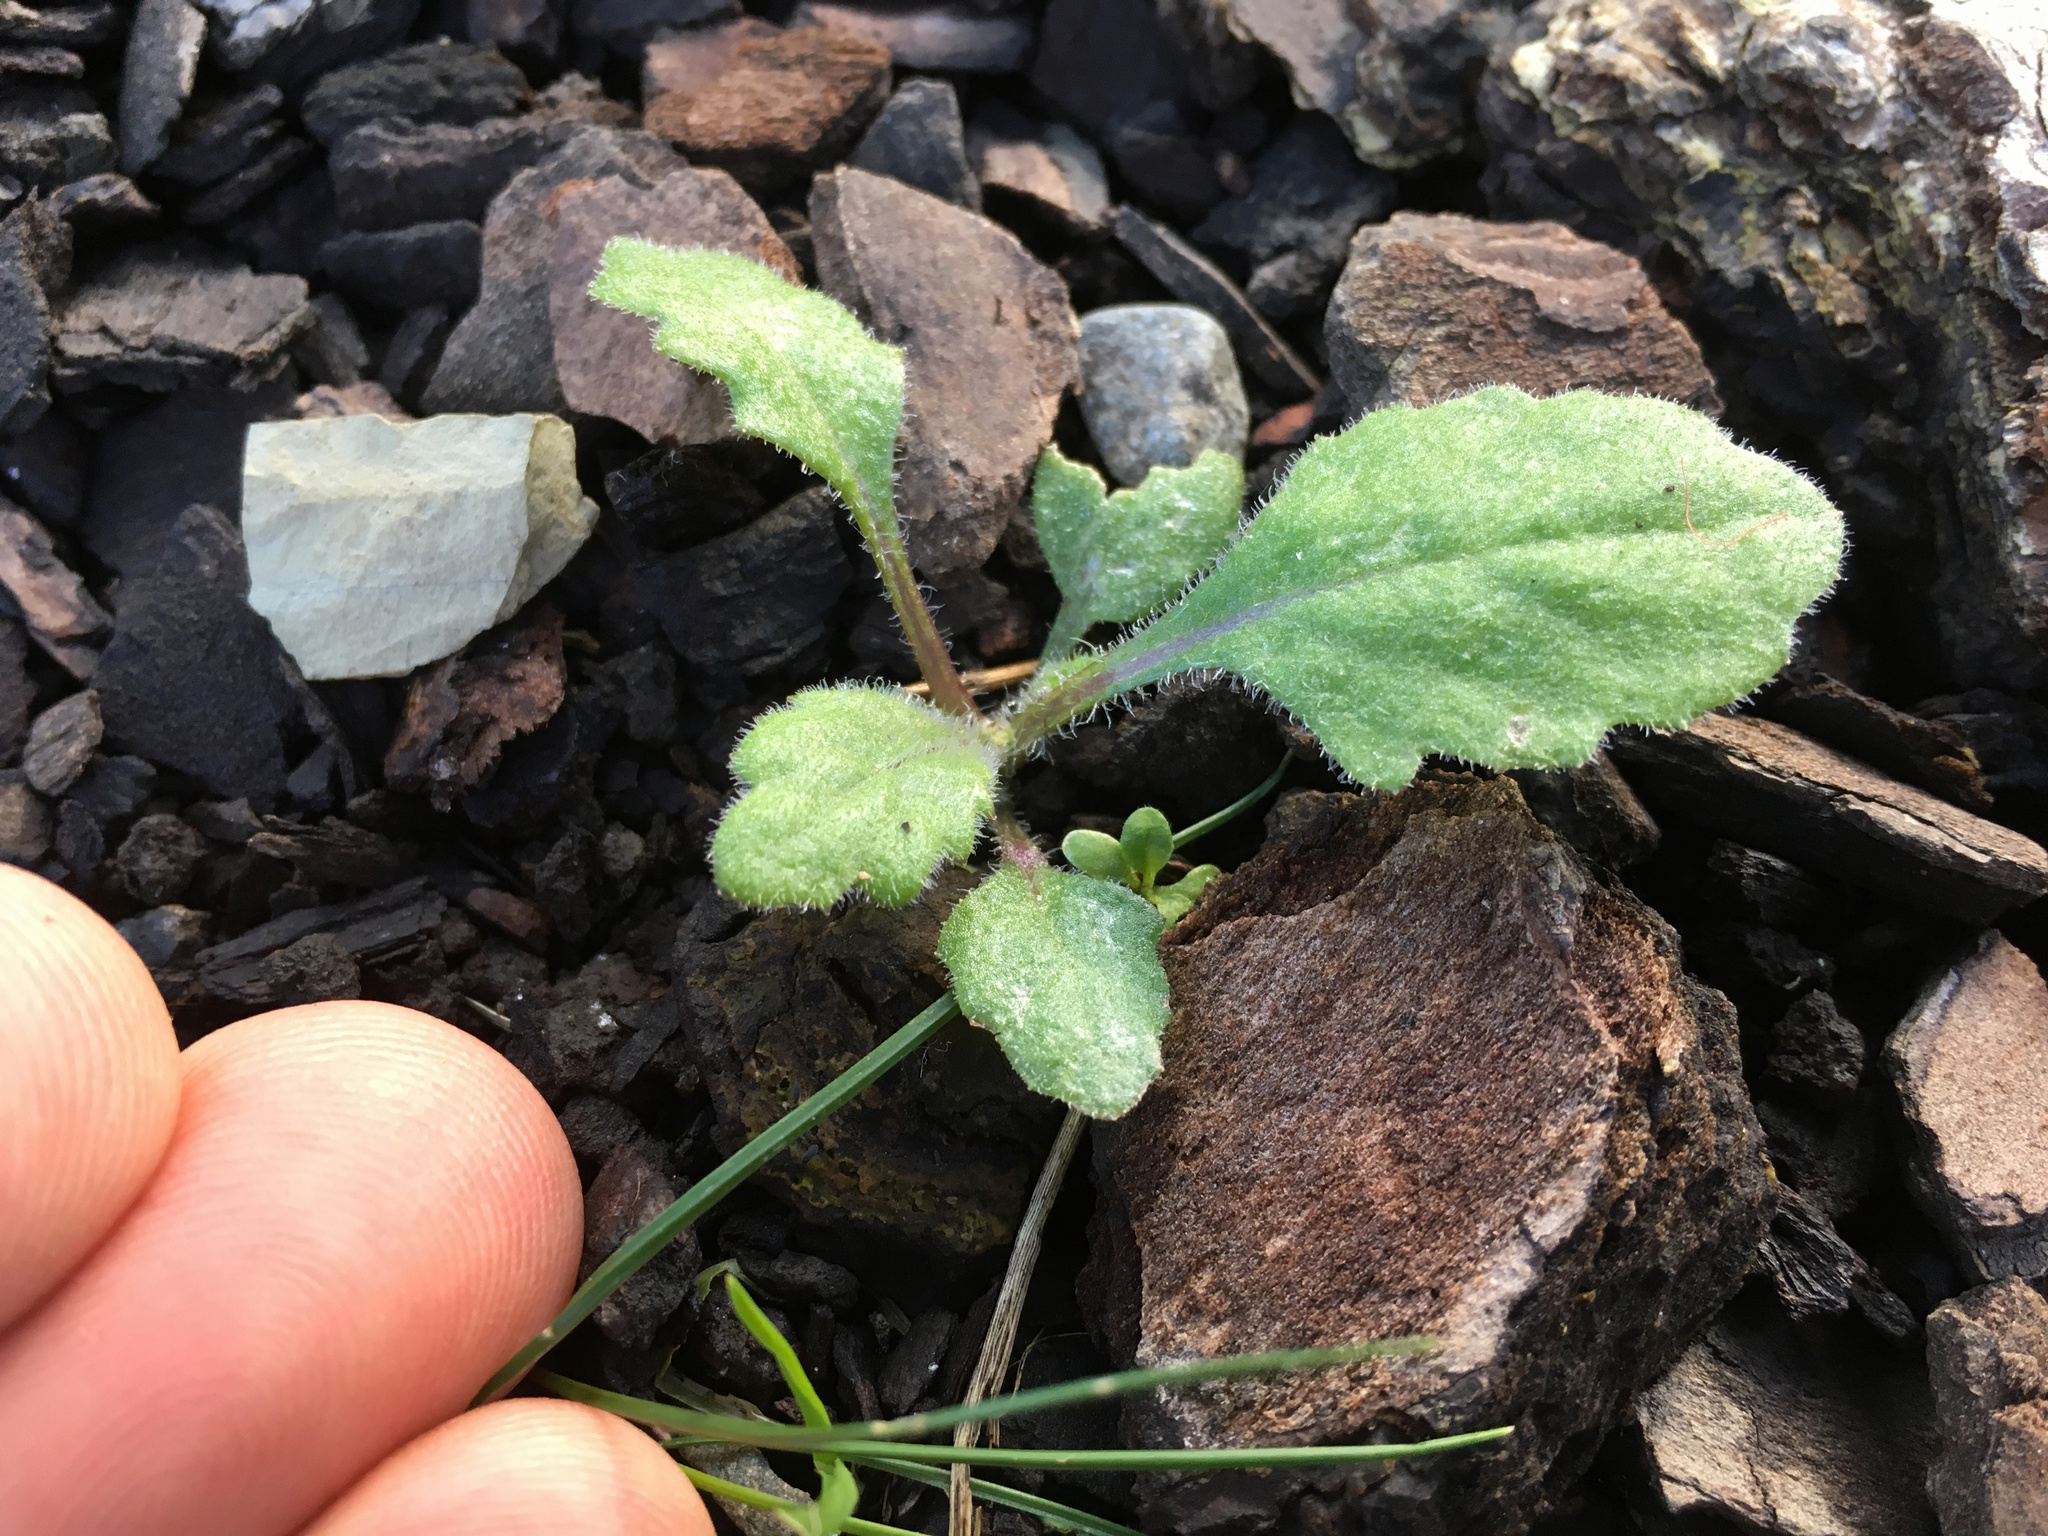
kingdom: Plantae
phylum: Tracheophyta
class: Magnoliopsida
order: Asterales
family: Asteraceae
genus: Senecio
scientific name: Senecio glomeratus
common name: Cutleaf burnweed
